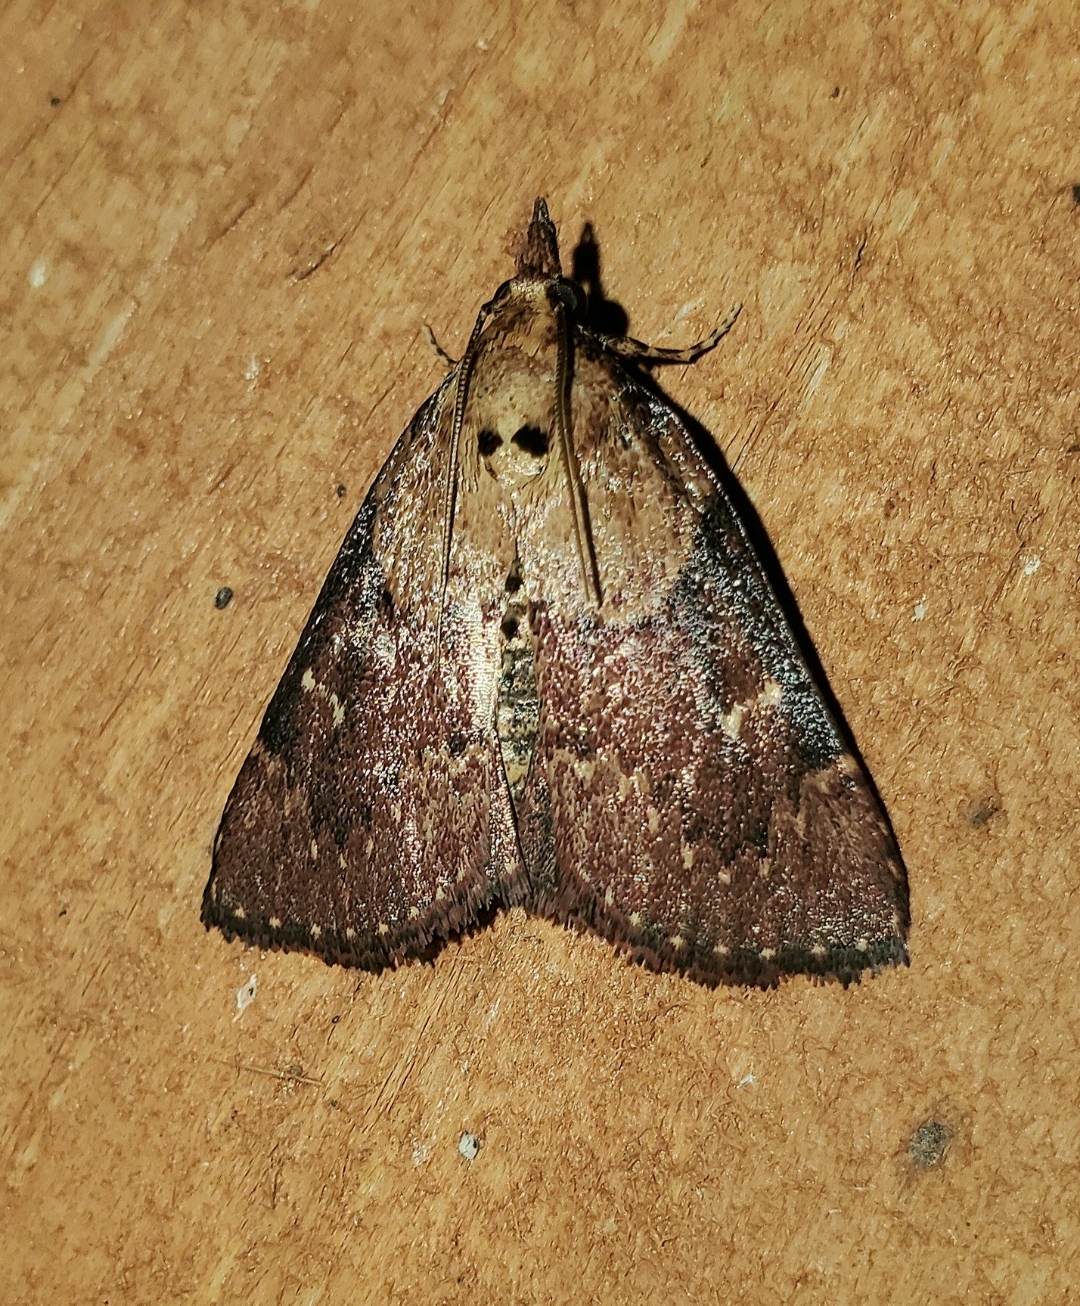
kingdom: Animalia
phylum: Arthropoda
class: Insecta
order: Lepidoptera
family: Pyralidae
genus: Omphalocera
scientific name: Omphalocera munroei
